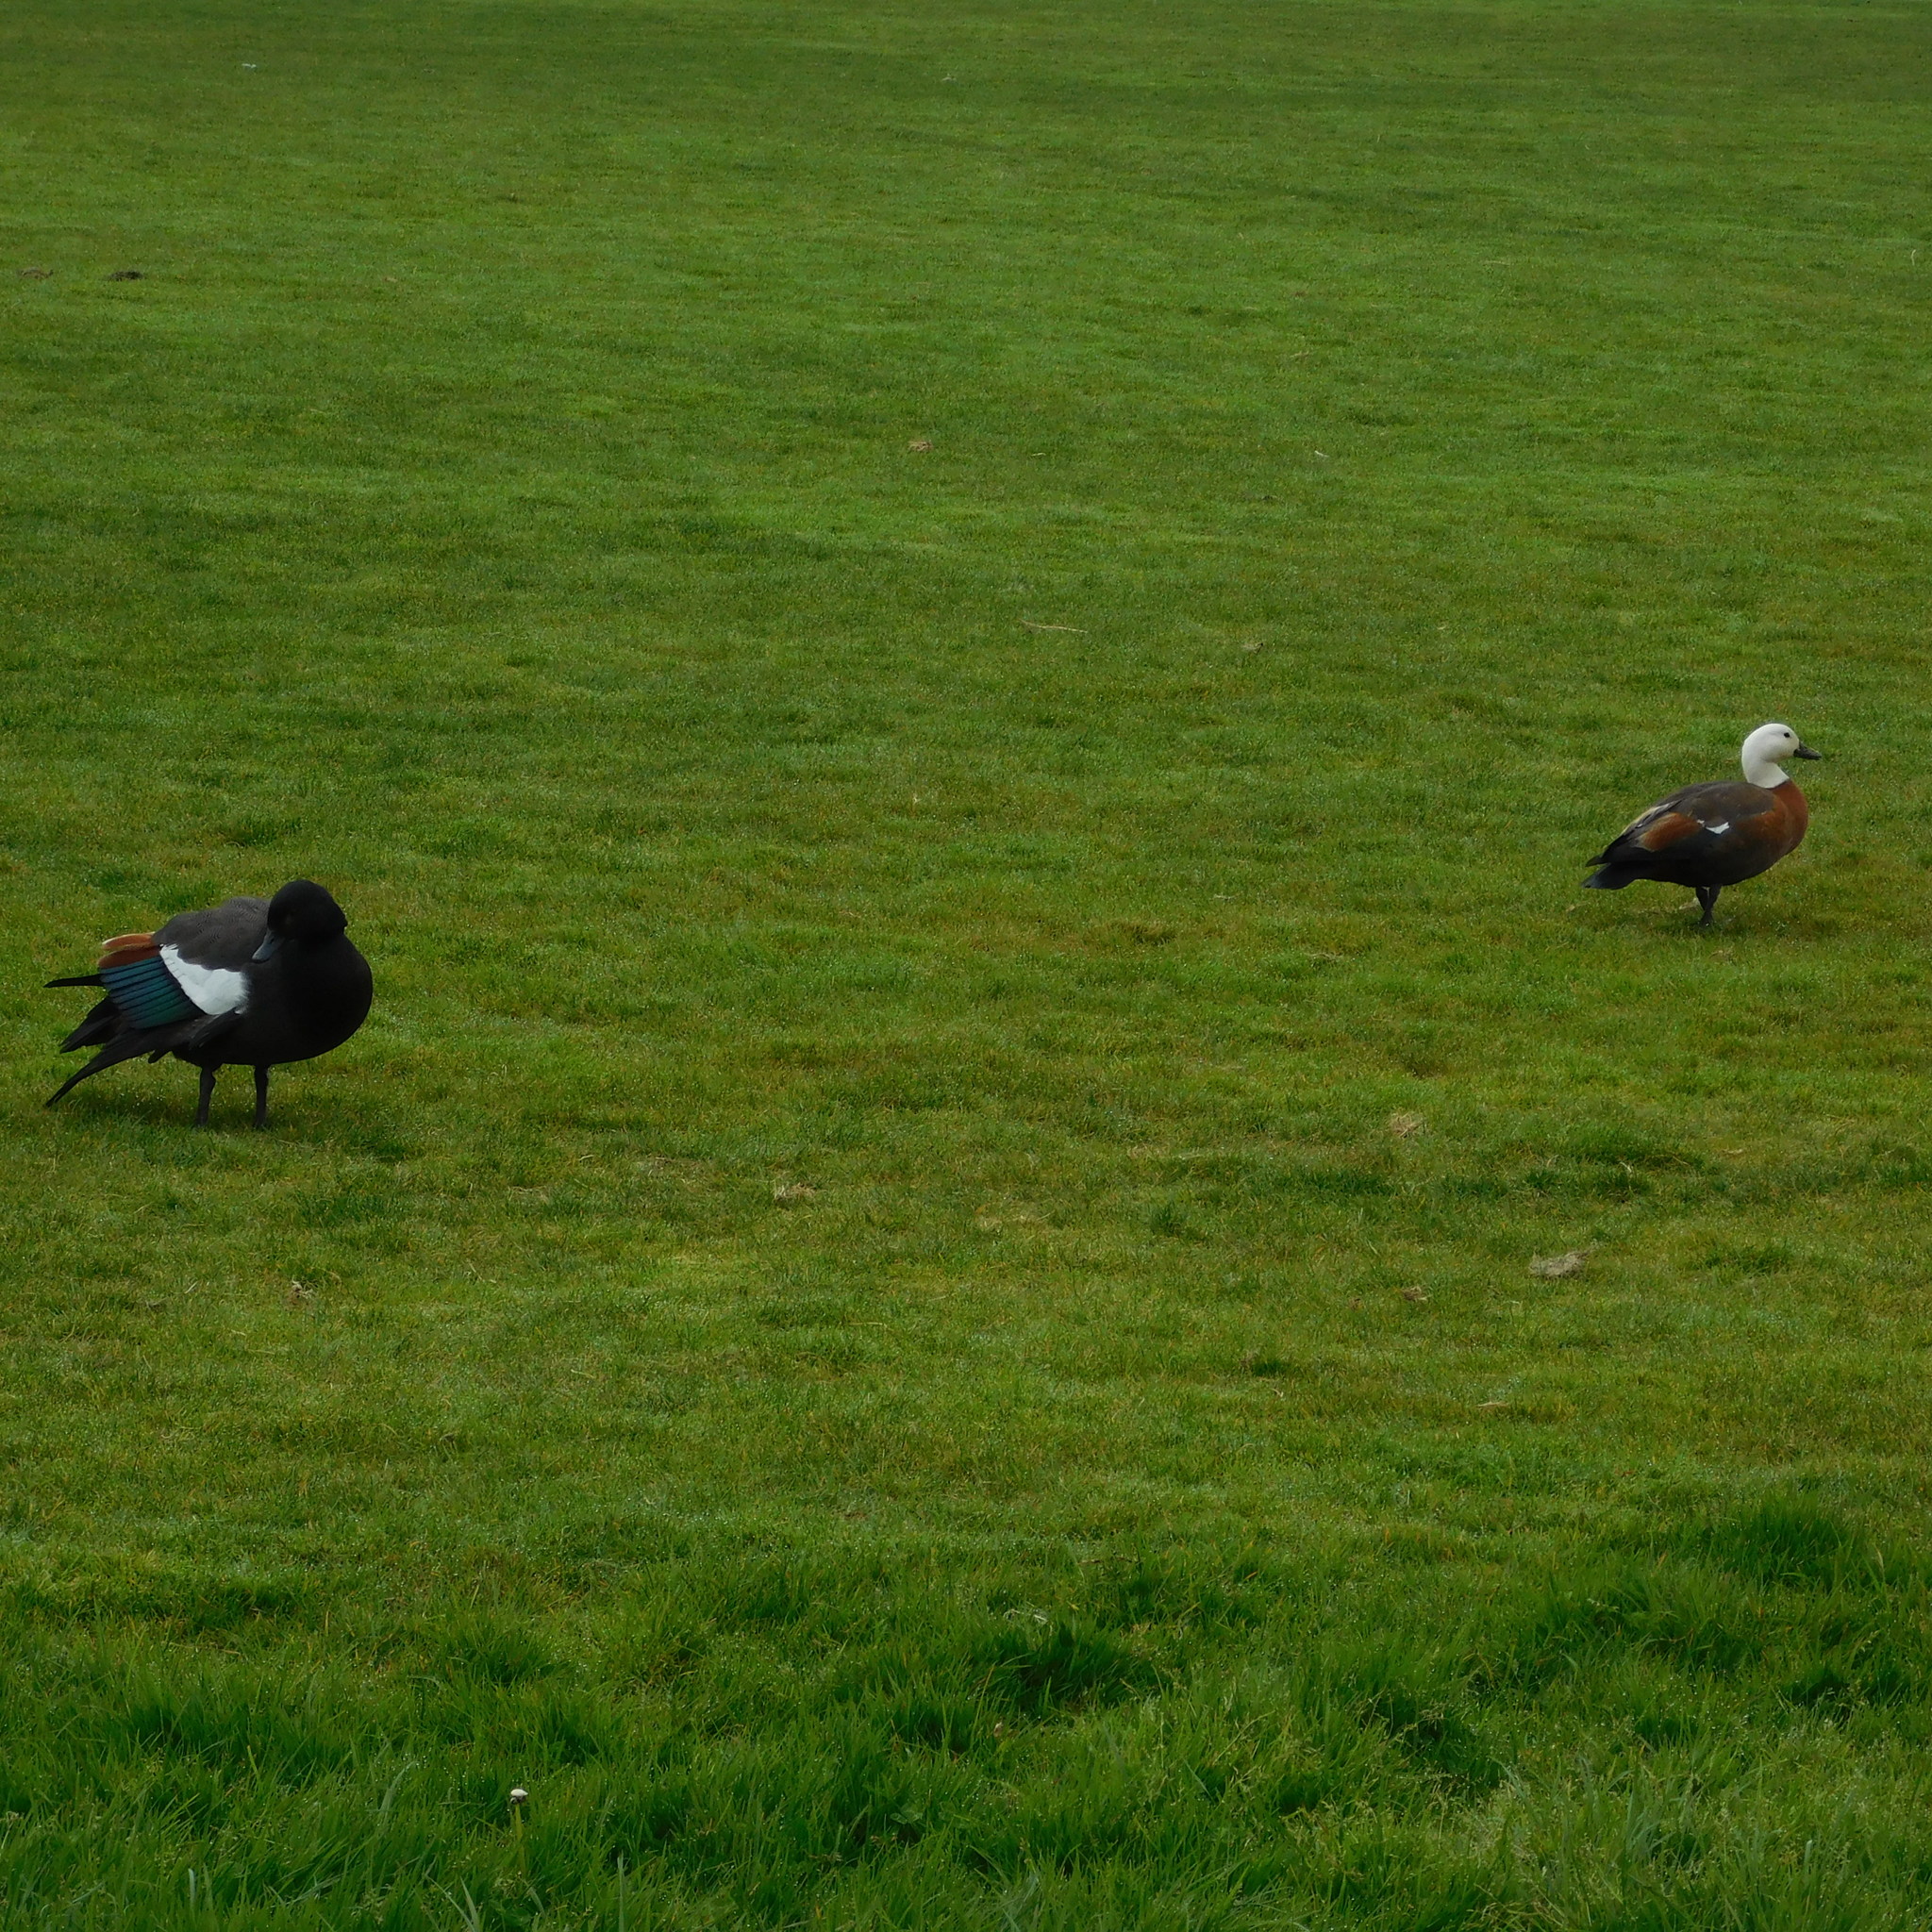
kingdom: Animalia
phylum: Chordata
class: Aves
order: Anseriformes
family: Anatidae
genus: Tadorna
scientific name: Tadorna variegata
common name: Paradise shelduck
